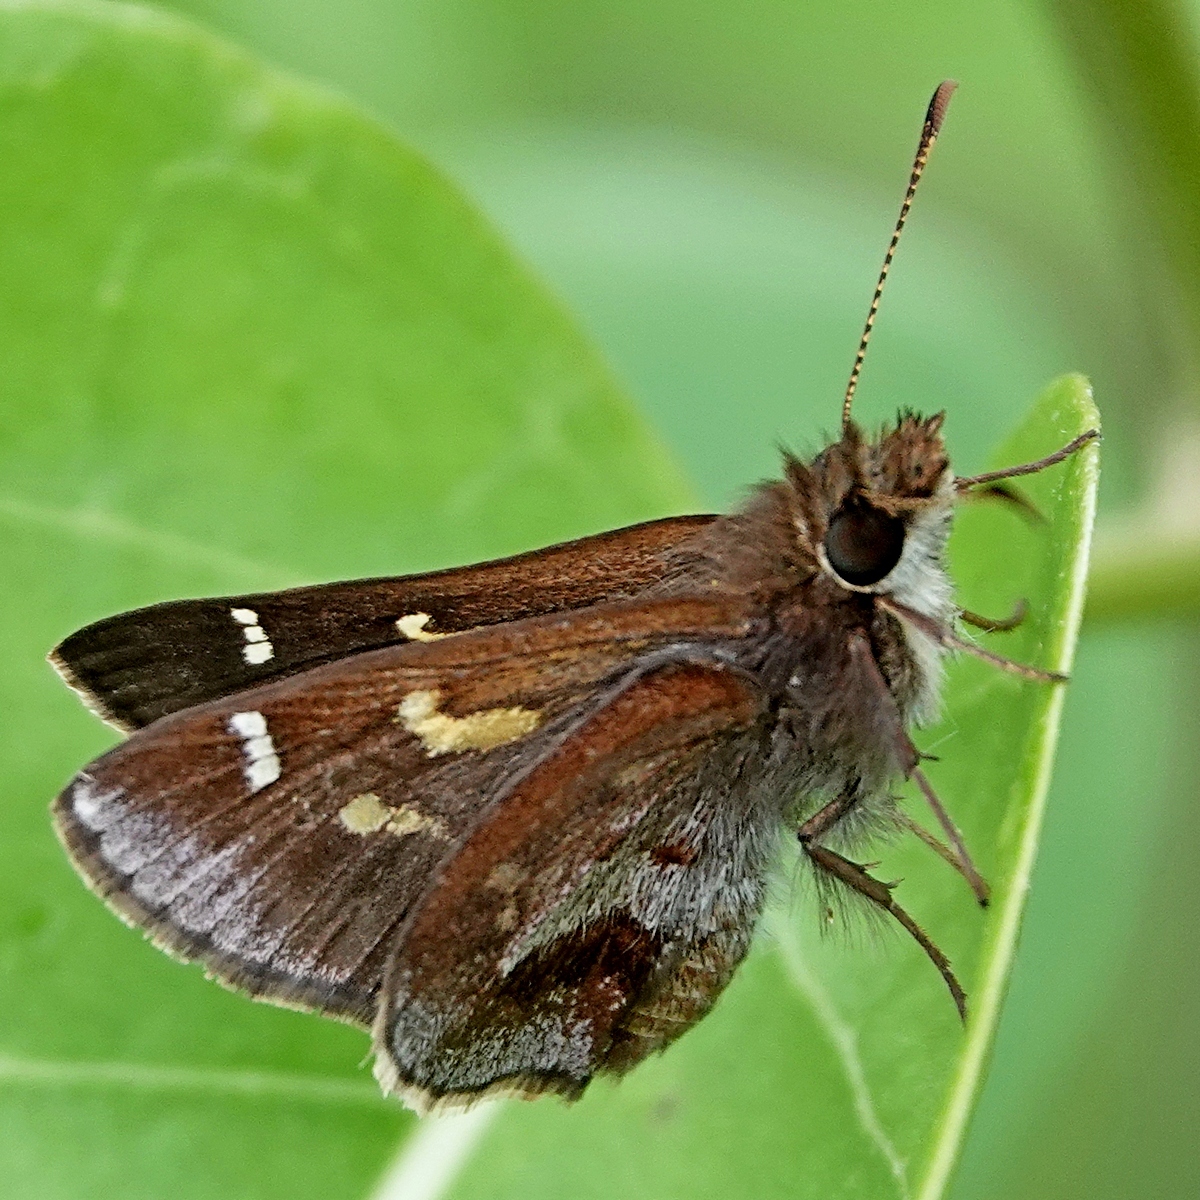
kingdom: Animalia
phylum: Arthropoda
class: Insecta
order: Lepidoptera
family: Hesperiidae
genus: Toxidia
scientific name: Toxidia doubledayi
